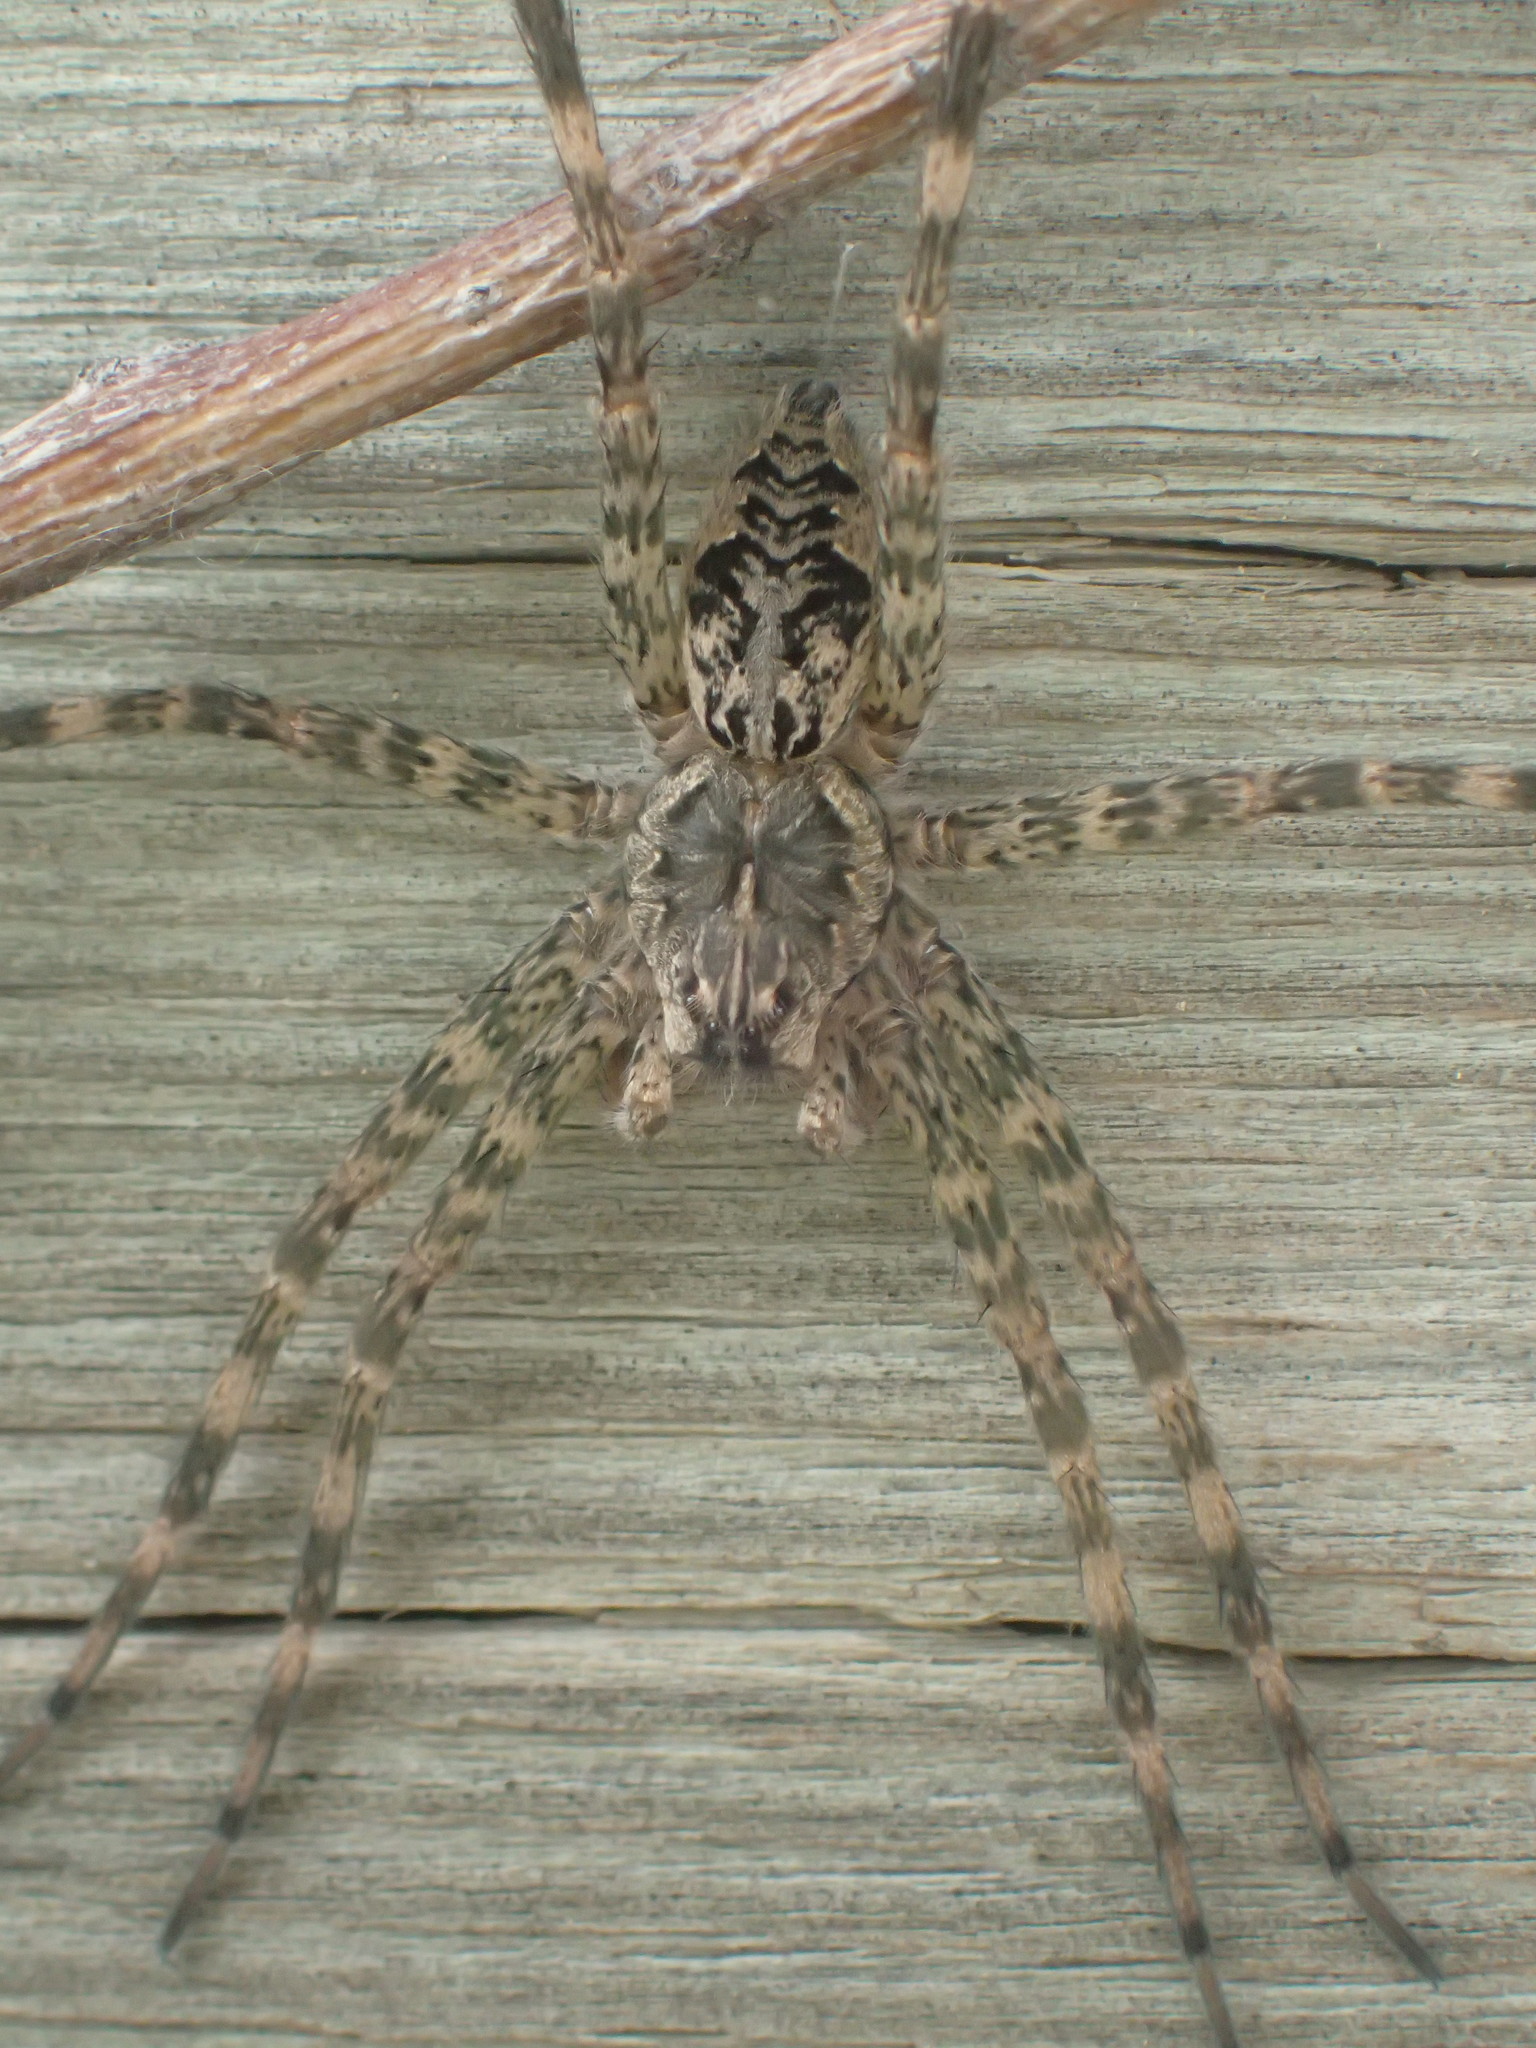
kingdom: Animalia
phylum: Arthropoda
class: Arachnida
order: Araneae
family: Pisauridae
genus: Dolomedes
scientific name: Dolomedes tenebrosus
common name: Dark fishing spider
